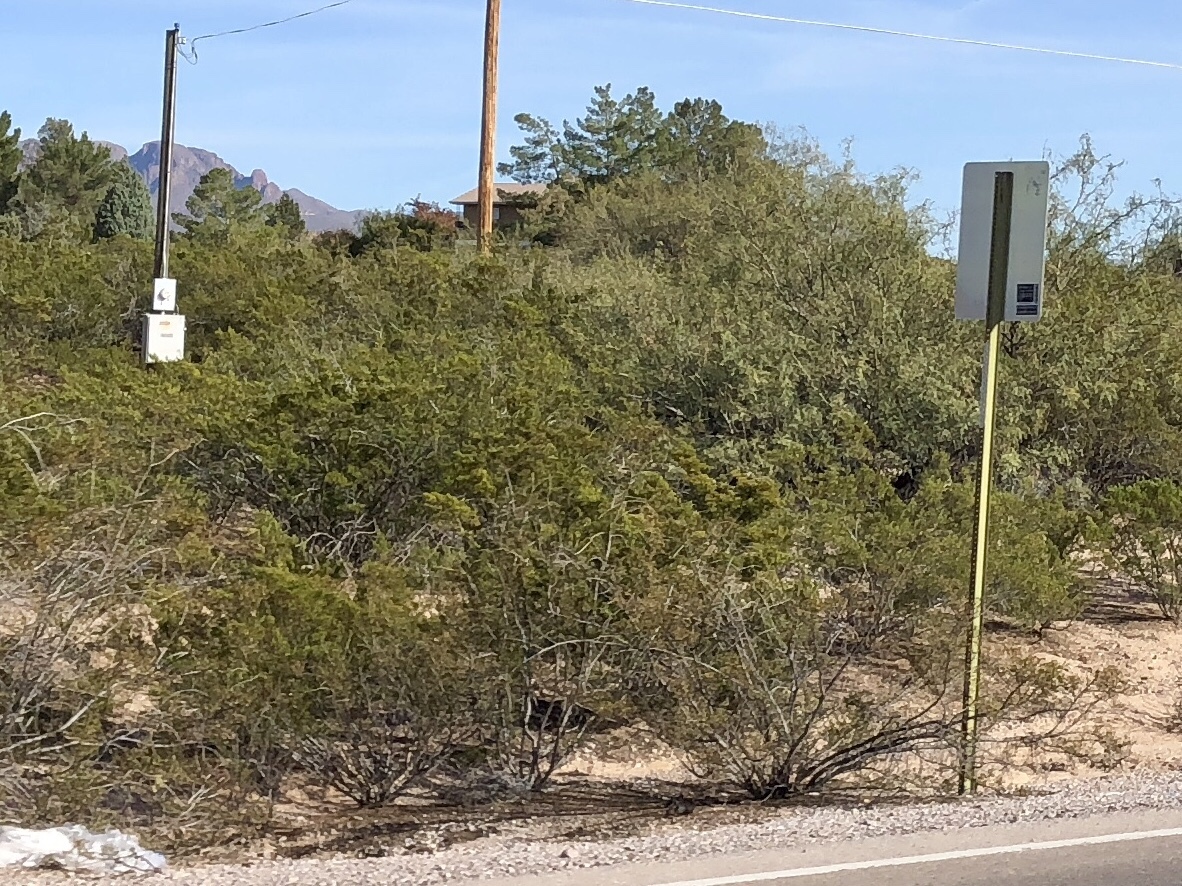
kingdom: Plantae
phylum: Tracheophyta
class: Magnoliopsida
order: Zygophyllales
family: Zygophyllaceae
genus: Larrea
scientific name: Larrea tridentata
